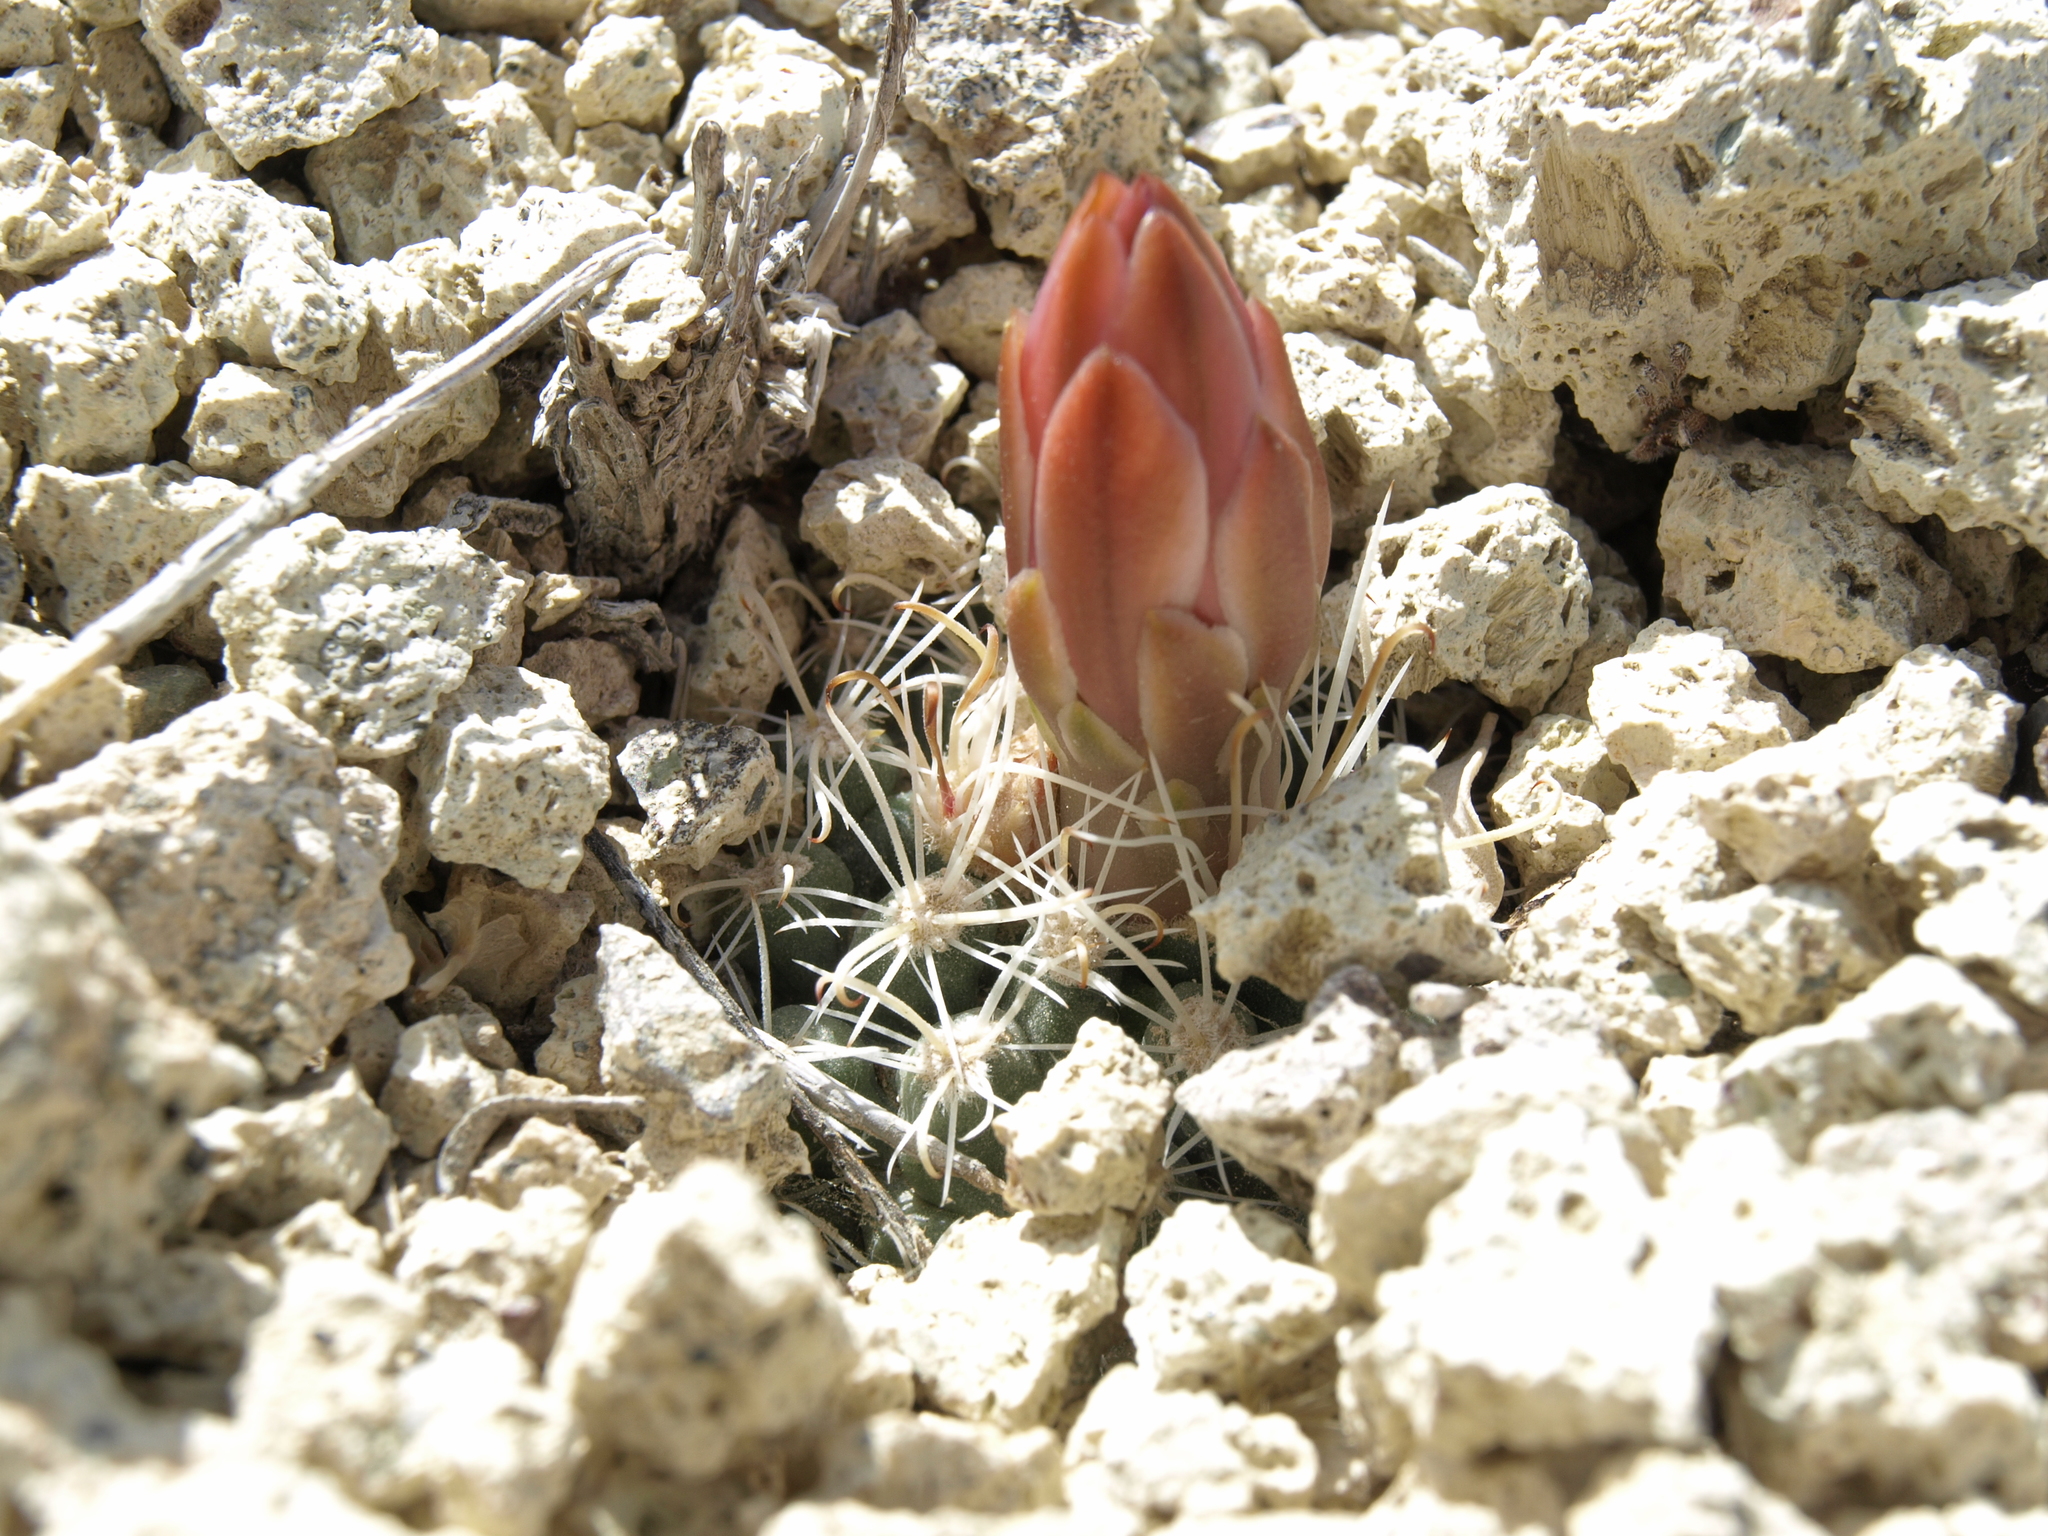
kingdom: Plantae
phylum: Tracheophyta
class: Magnoliopsida
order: Caryophyllales
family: Cactaceae
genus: Sclerocactus
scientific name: Sclerocactus nyensis
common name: Nye county fish-hook cactus
